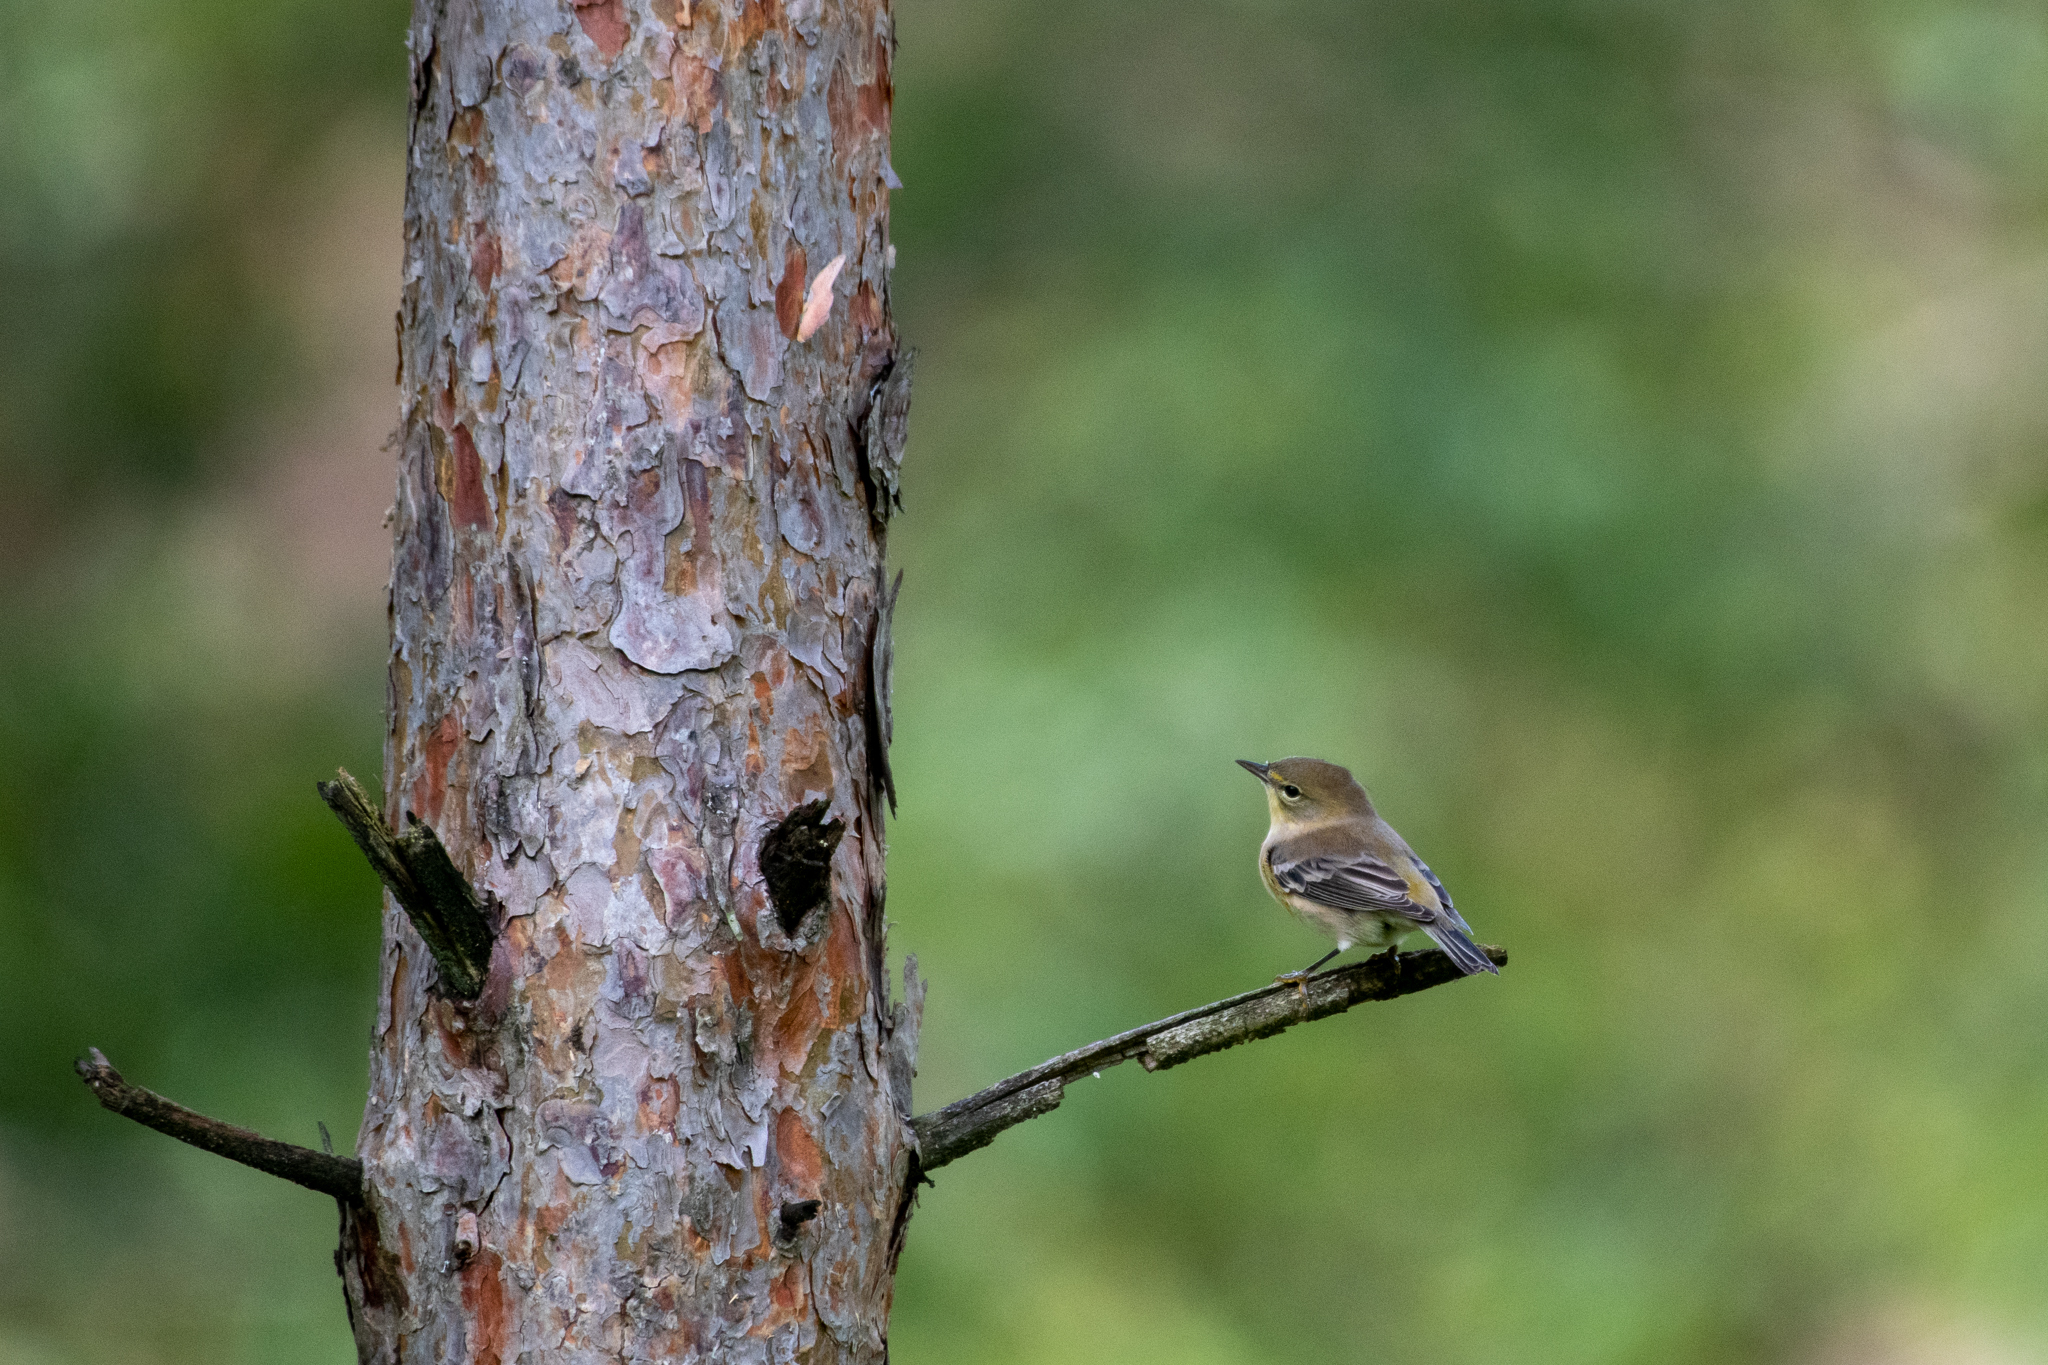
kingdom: Animalia
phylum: Chordata
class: Aves
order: Passeriformes
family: Parulidae
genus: Setophaga
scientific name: Setophaga pinus
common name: Pine warbler
